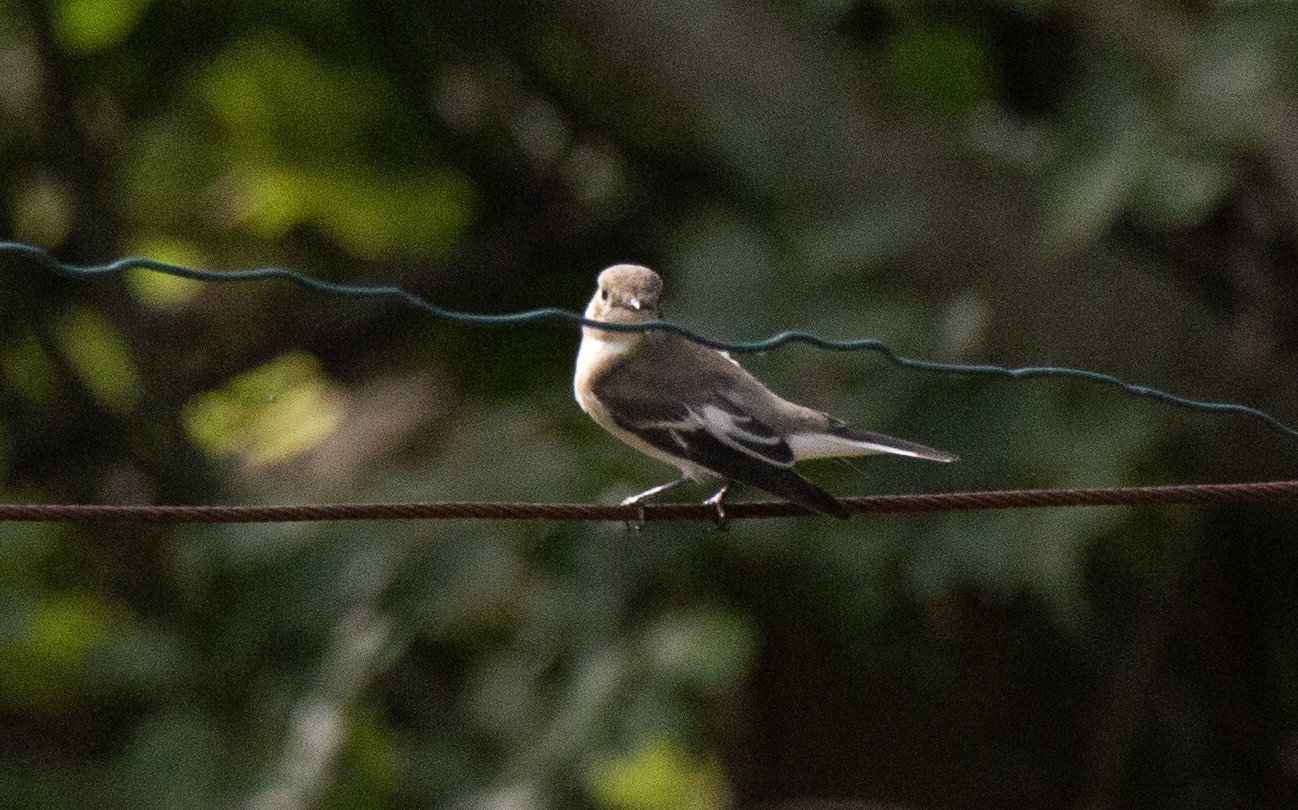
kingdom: Animalia
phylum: Chordata
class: Aves
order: Passeriformes
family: Muscicapidae
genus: Ficedula
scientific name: Ficedula hypoleuca
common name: European pied flycatcher
